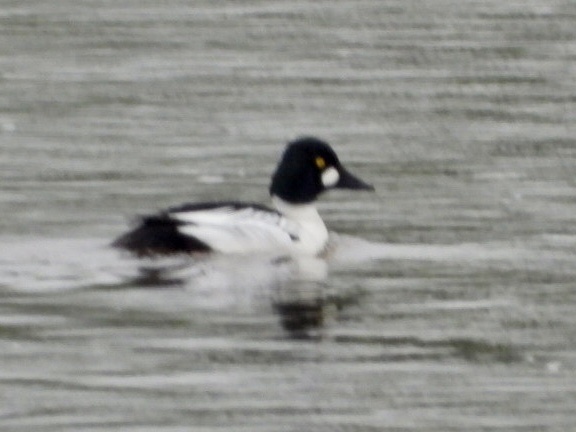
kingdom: Animalia
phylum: Chordata
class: Aves
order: Anseriformes
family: Anatidae
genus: Bucephala
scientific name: Bucephala clangula
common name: Common goldeneye
